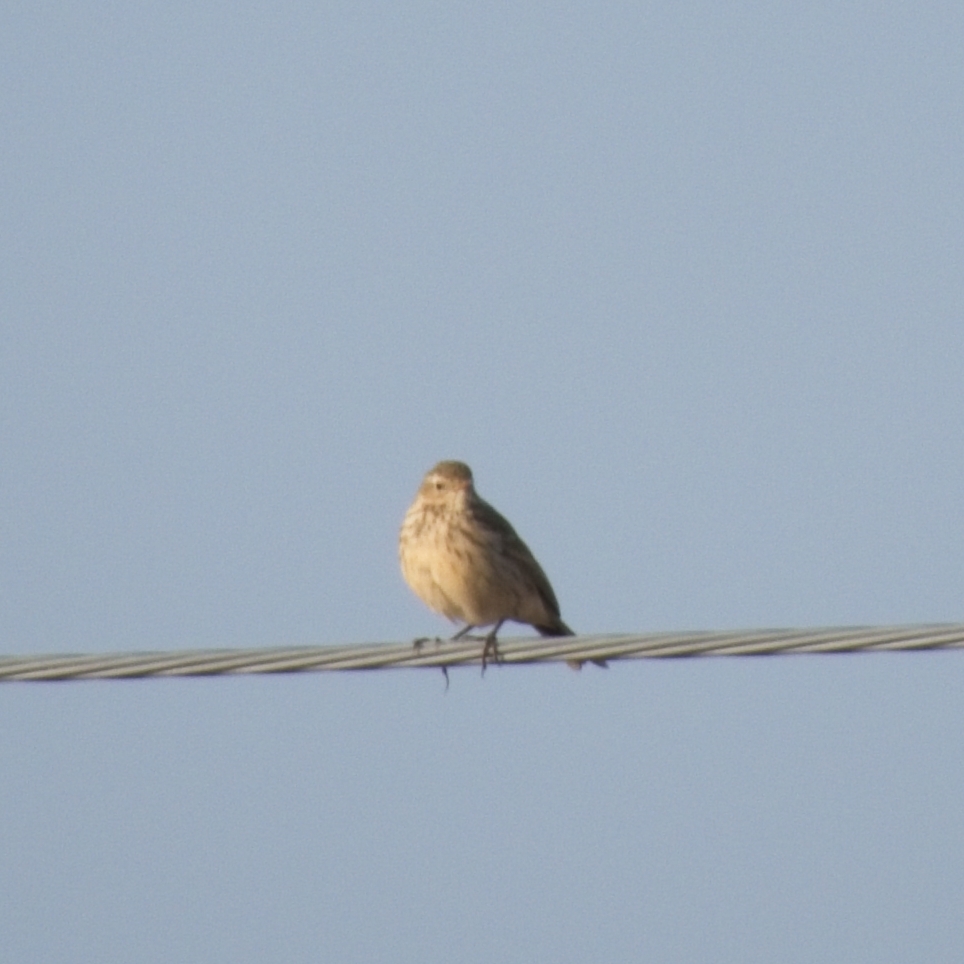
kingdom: Animalia
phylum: Chordata
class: Aves
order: Passeriformes
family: Motacillidae
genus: Anthus
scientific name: Anthus spinoletta
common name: Water pipit
